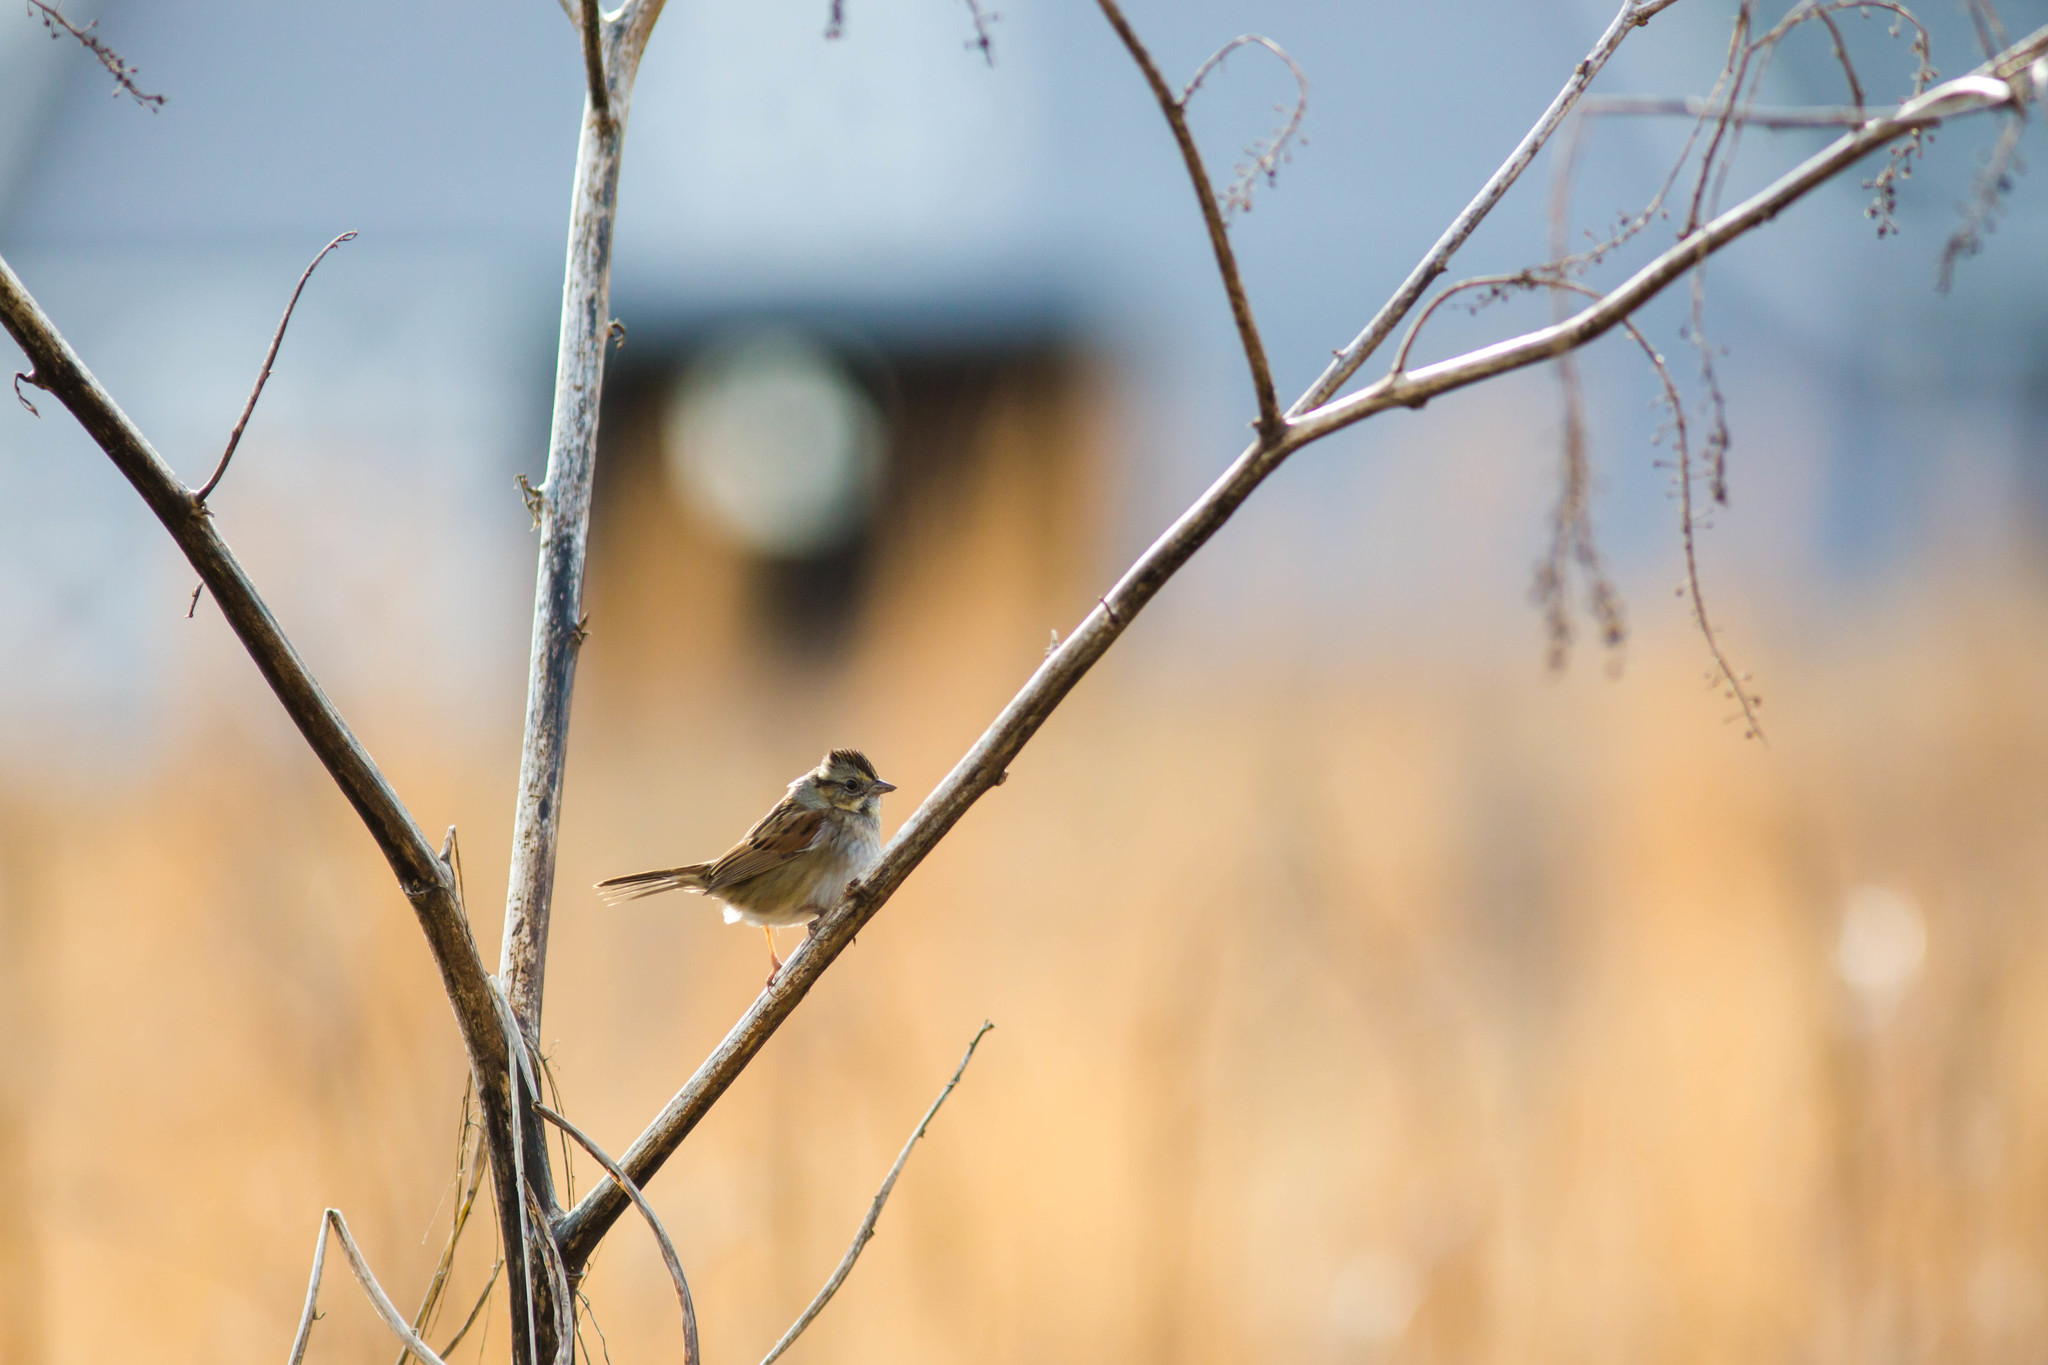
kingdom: Animalia
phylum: Chordata
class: Aves
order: Passeriformes
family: Passerellidae
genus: Melospiza
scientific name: Melospiza georgiana
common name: Swamp sparrow
